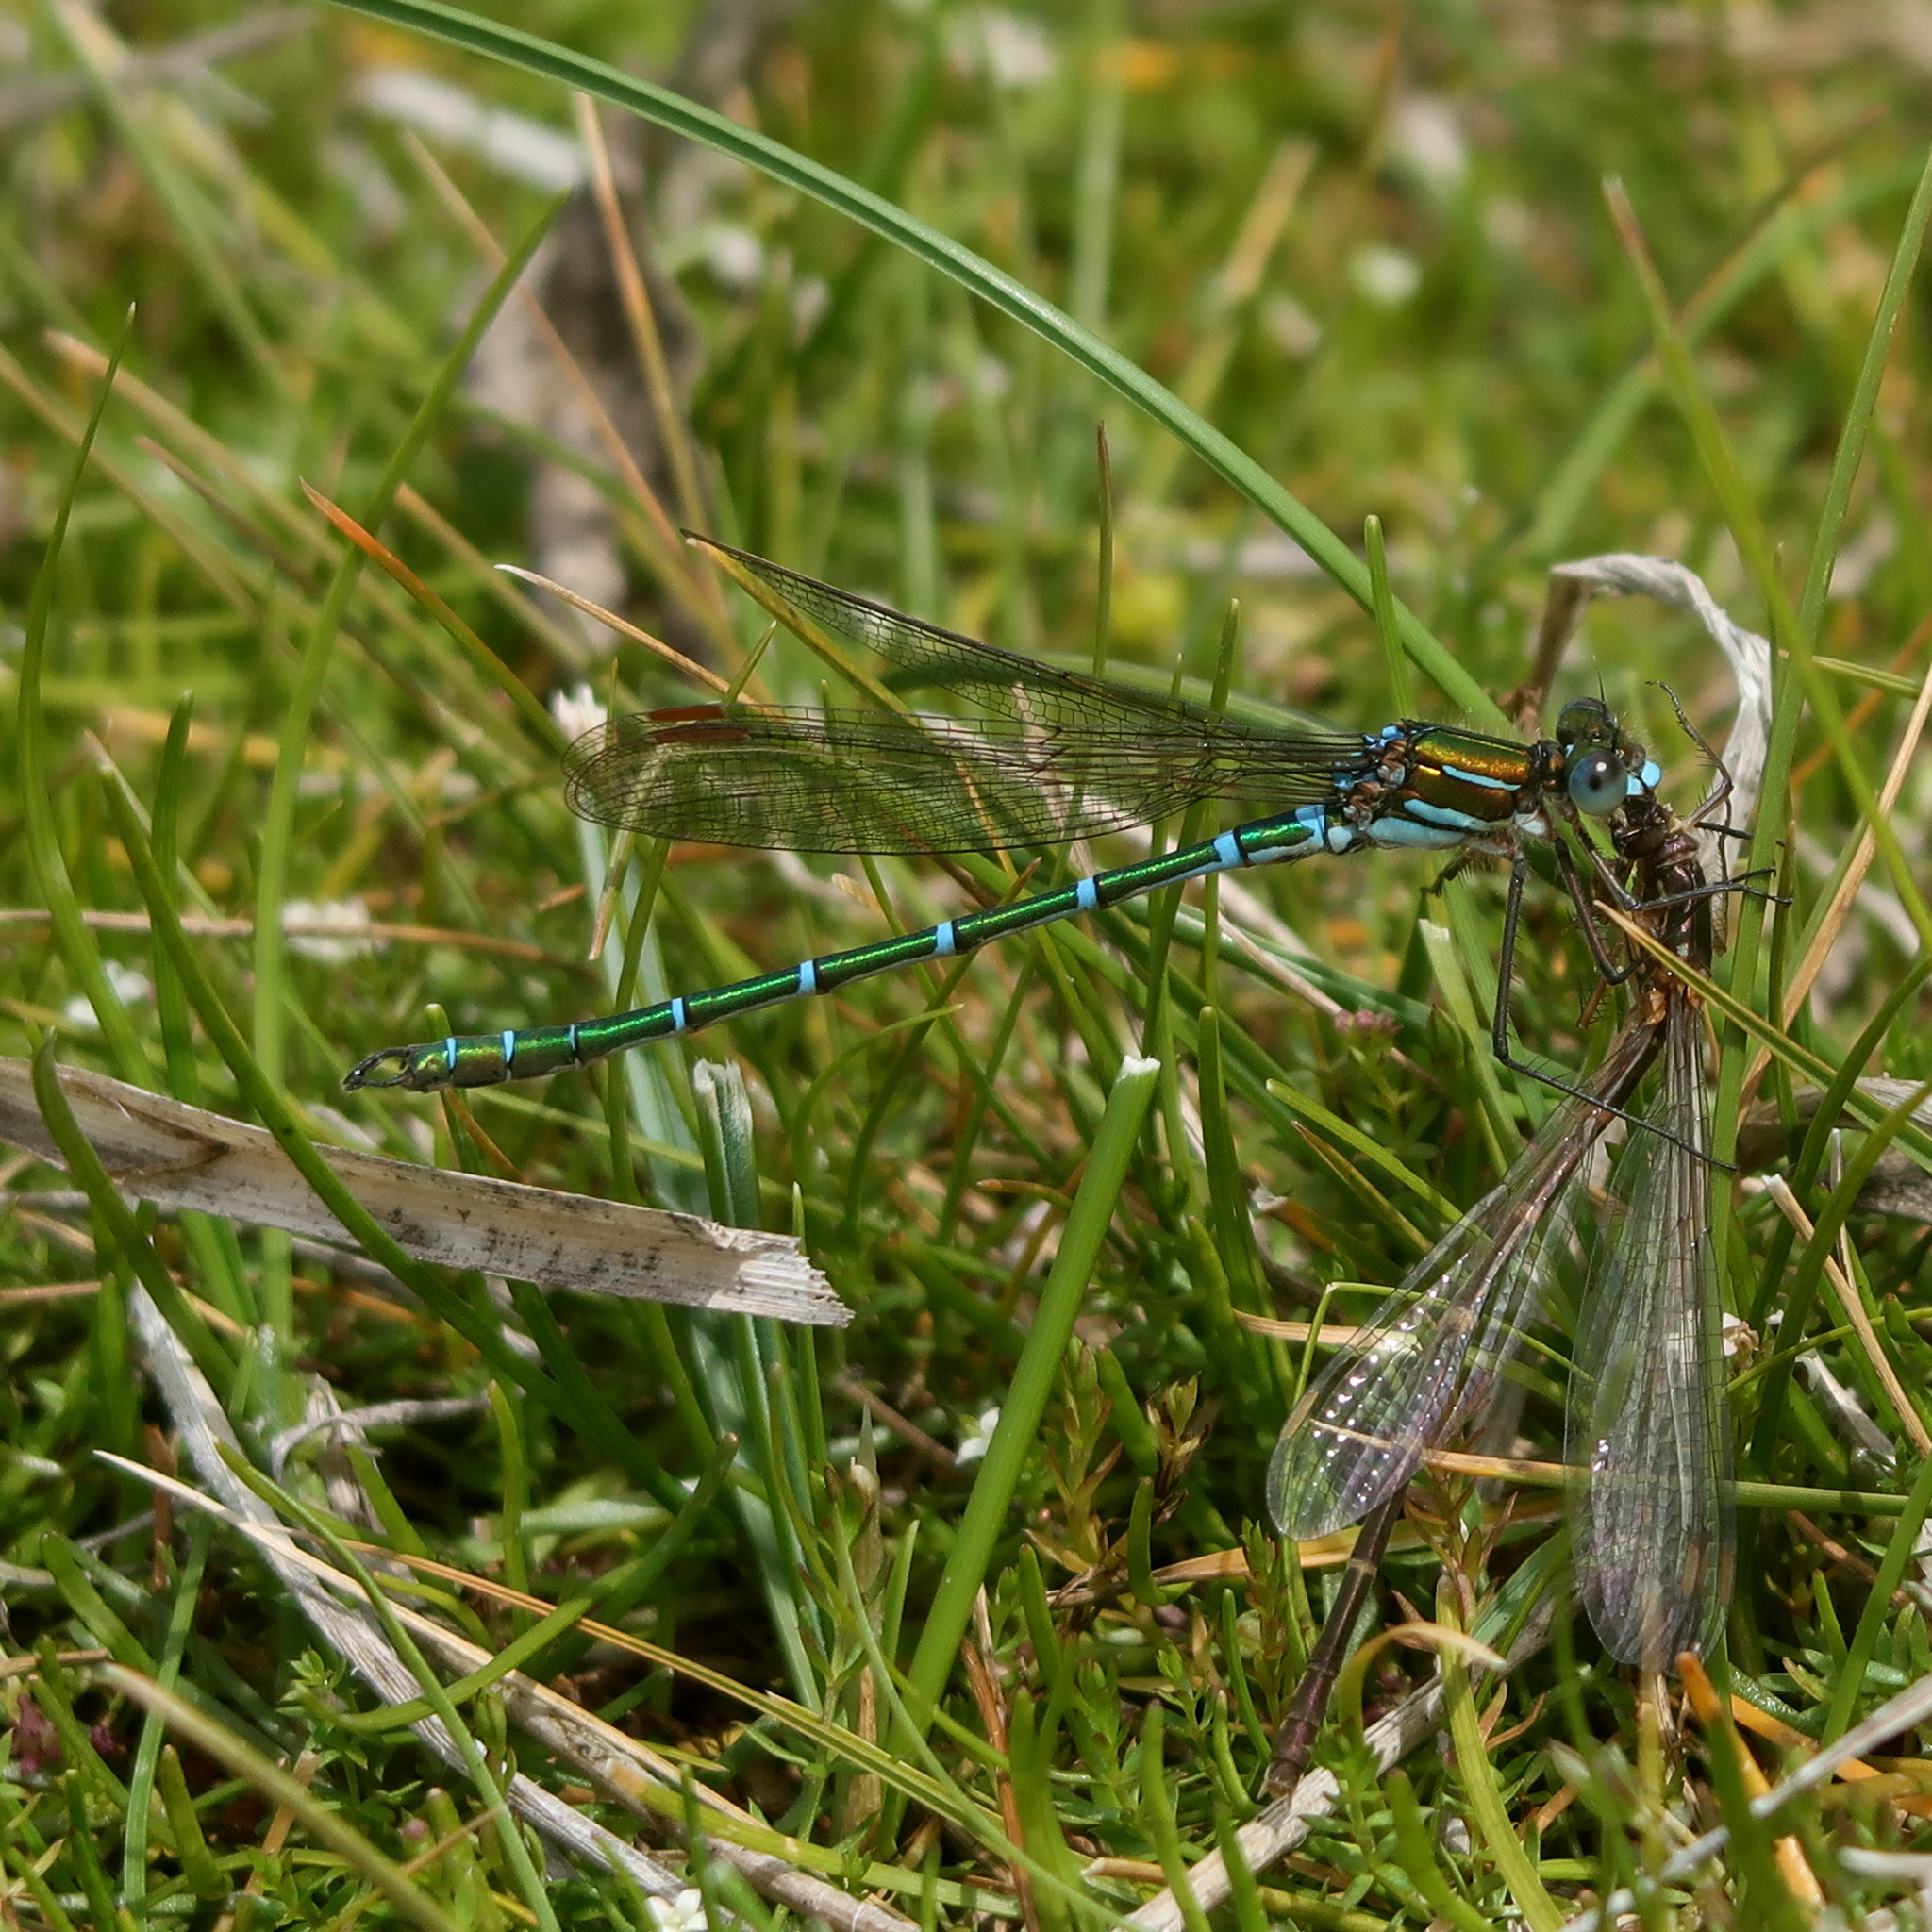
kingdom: Animalia
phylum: Arthropoda
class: Insecta
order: Odonata
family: Lestidae
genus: Austrolestes
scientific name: Austrolestes cingulatus
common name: Metallic ringtail
